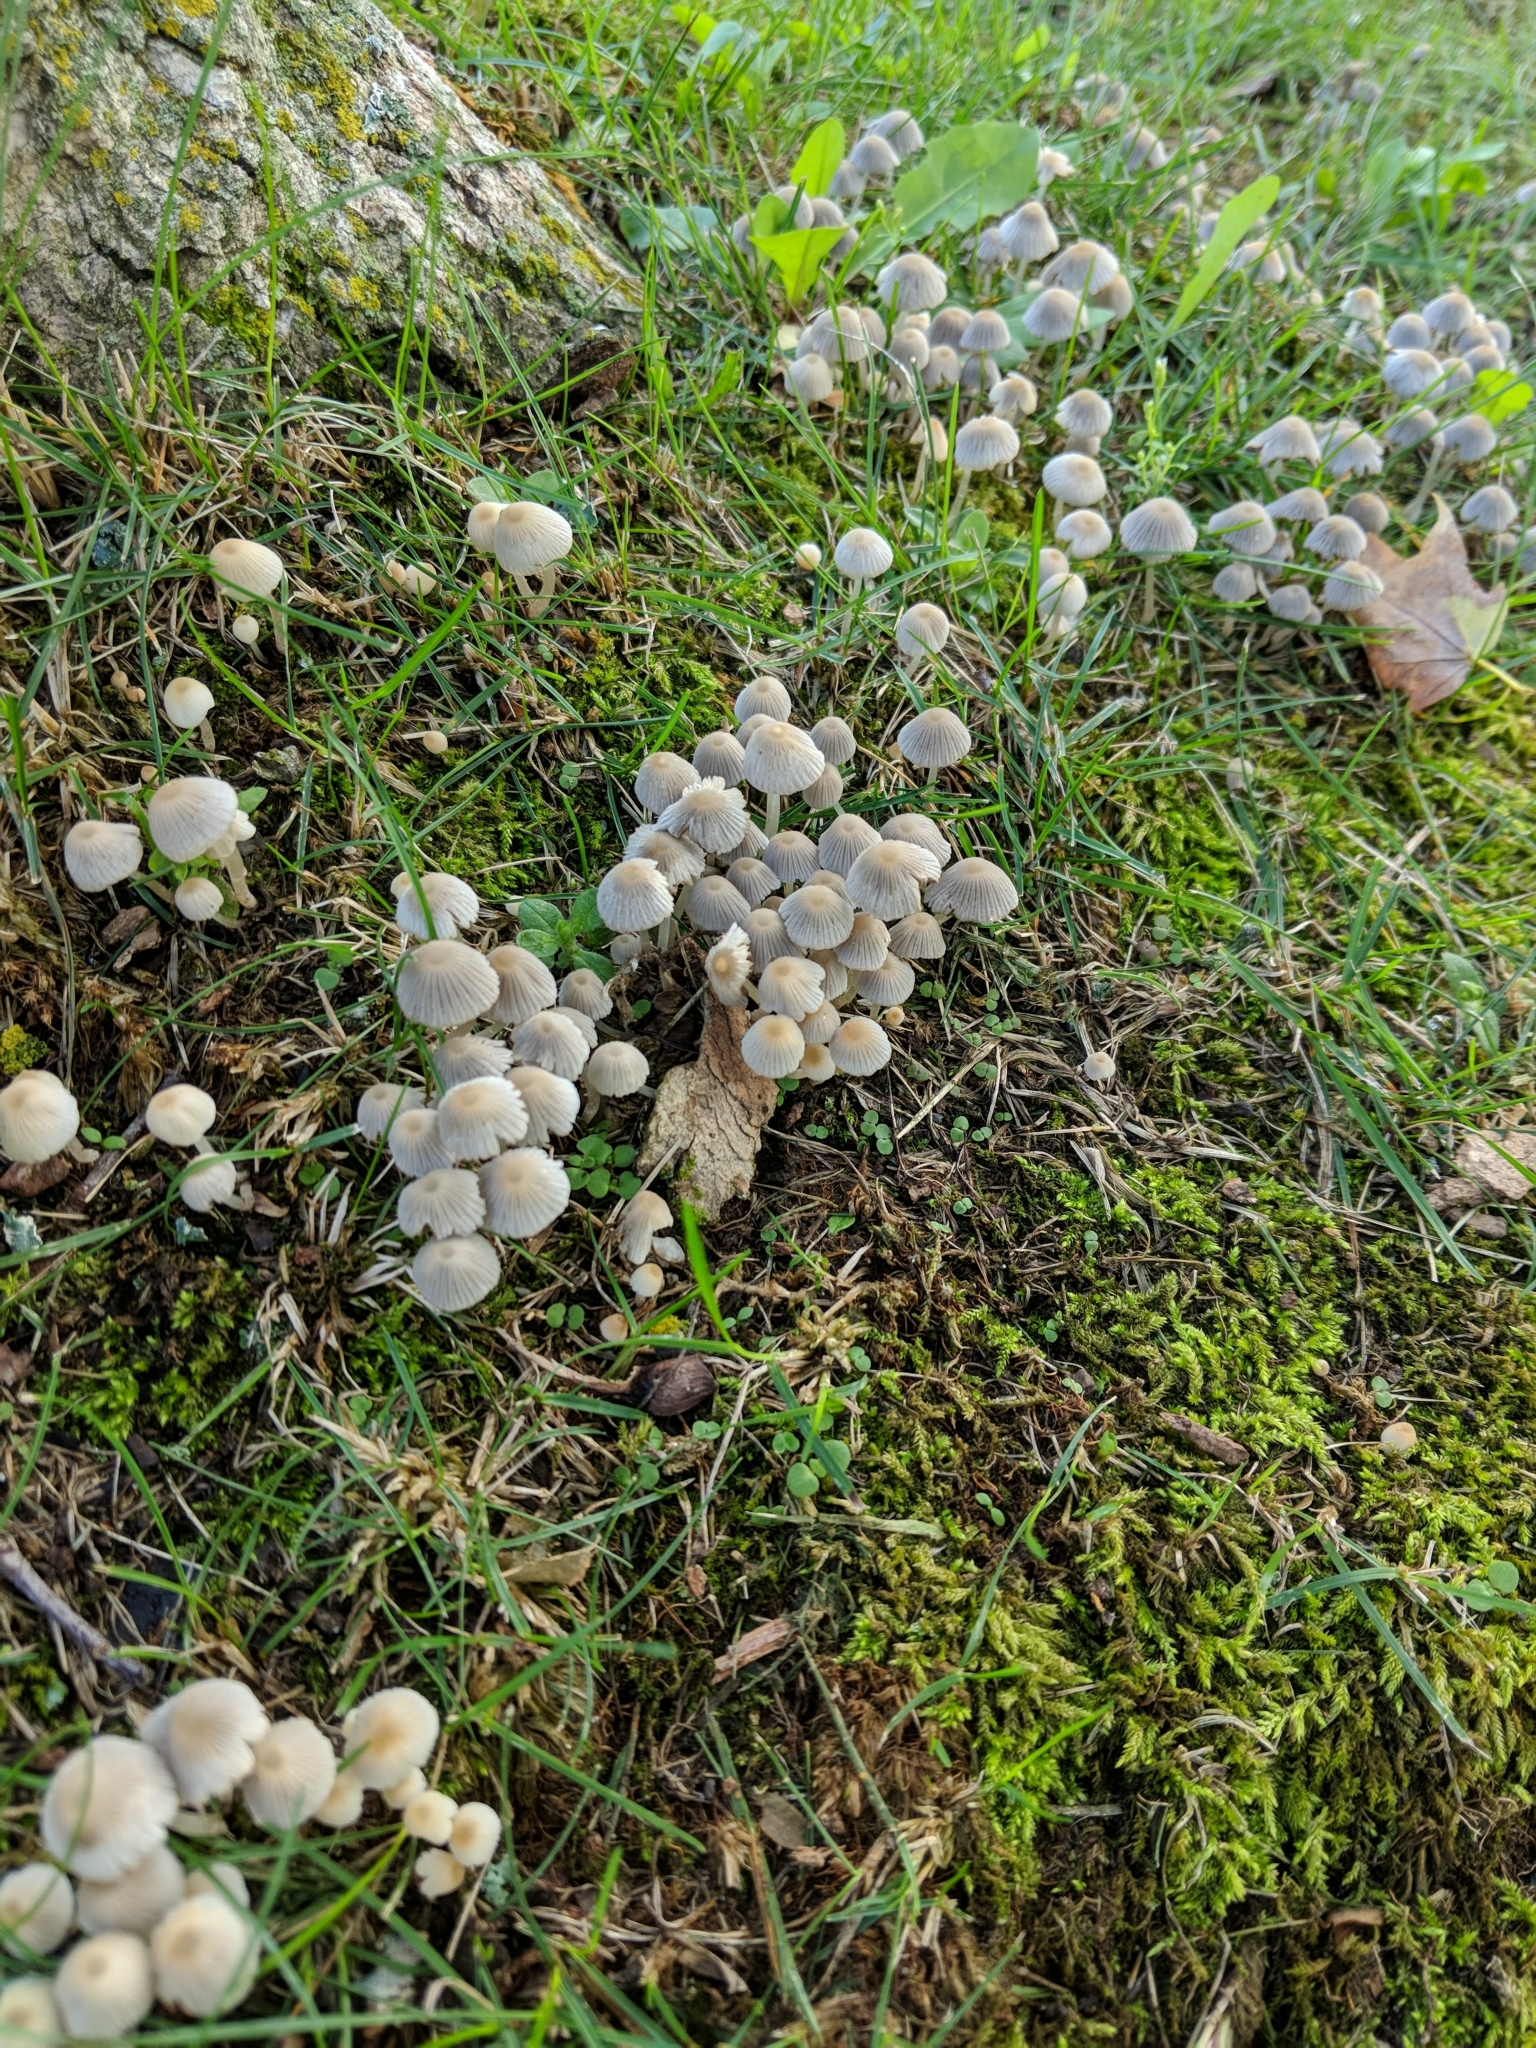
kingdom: Fungi
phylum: Basidiomycota
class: Agaricomycetes
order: Agaricales
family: Psathyrellaceae
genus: Coprinellus
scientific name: Coprinellus disseminatus
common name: Fairies' bonnets
